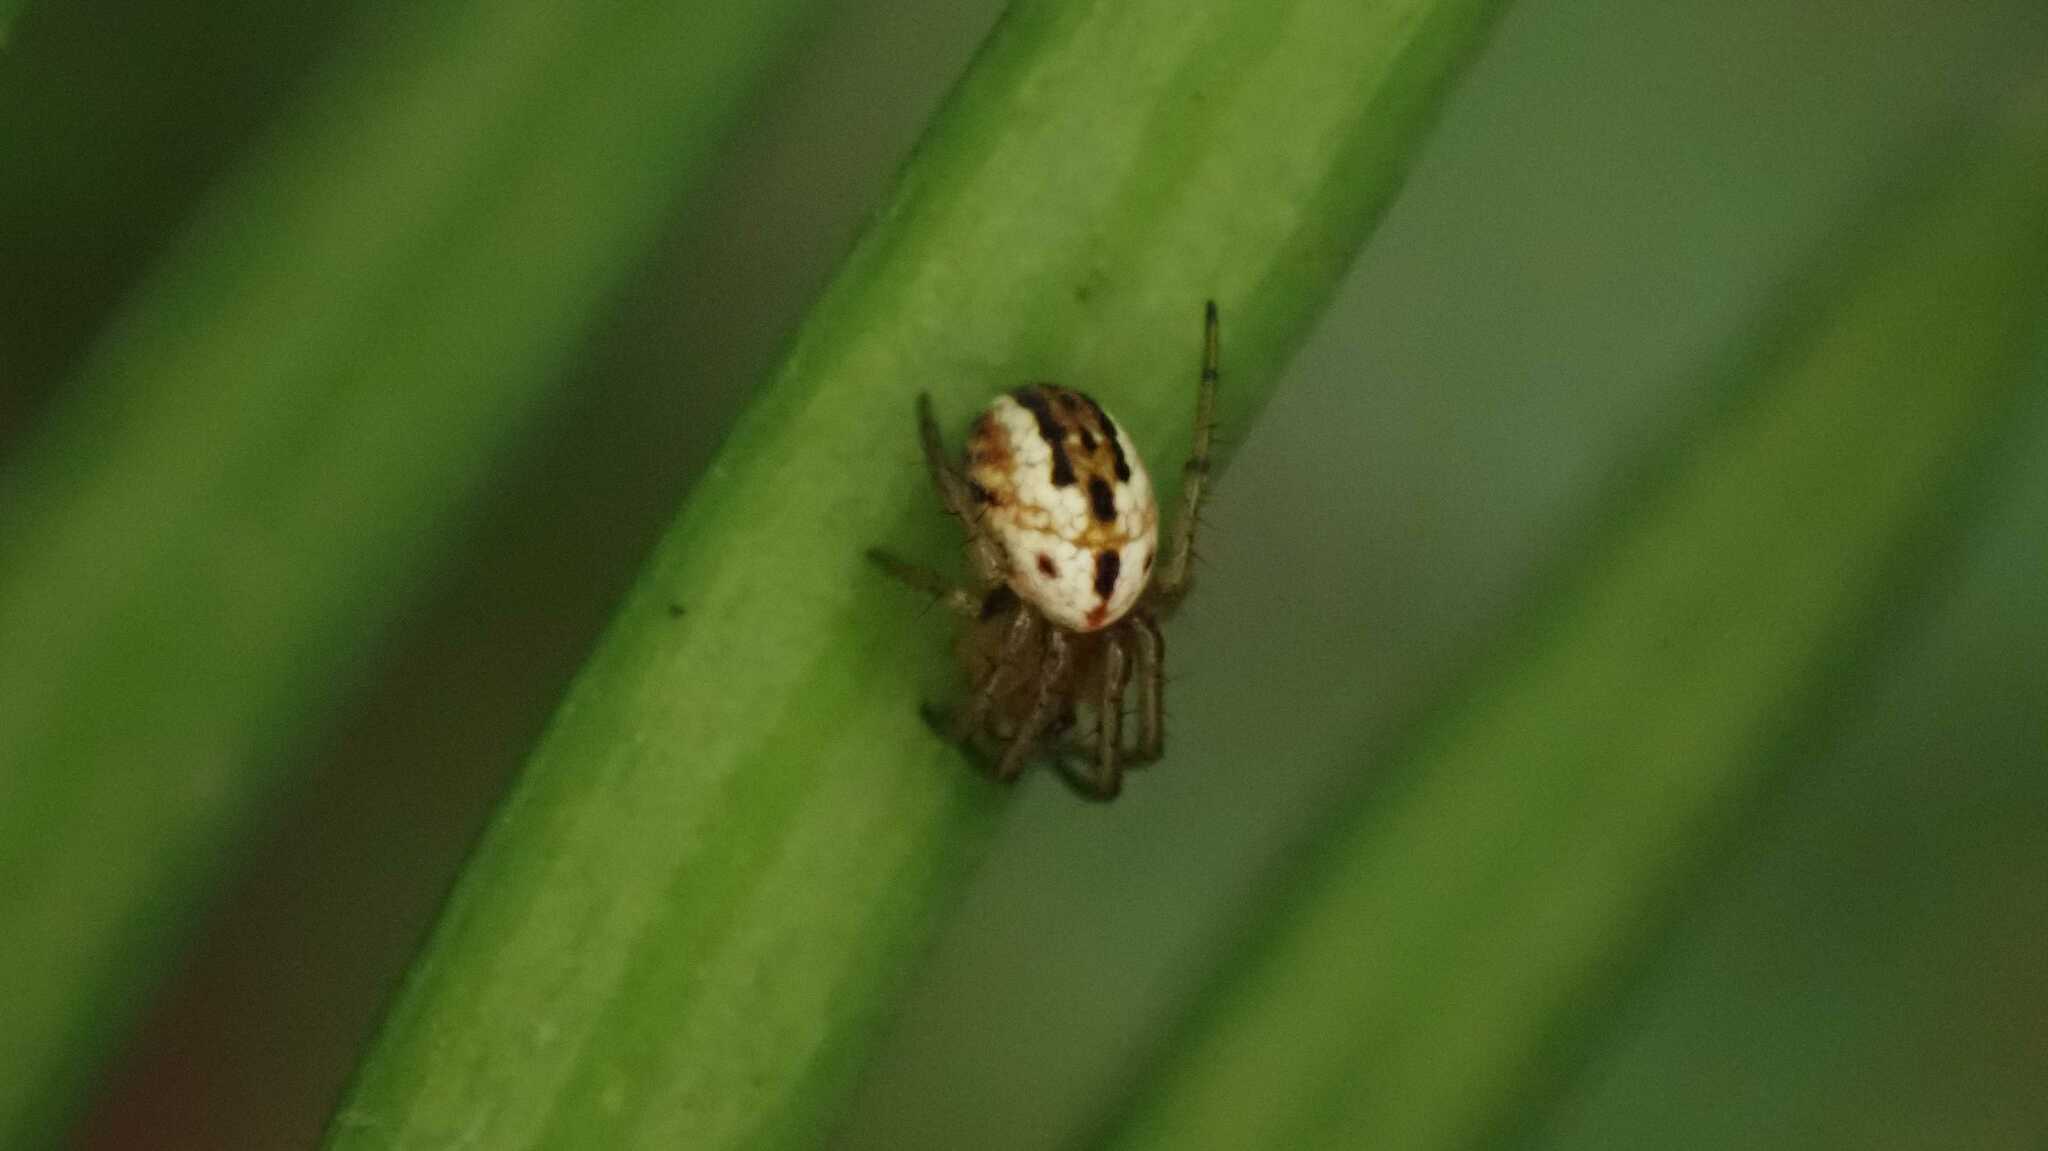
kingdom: Animalia
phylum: Arthropoda
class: Arachnida
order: Araneae
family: Araneidae
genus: Mangora
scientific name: Mangora acalypha
